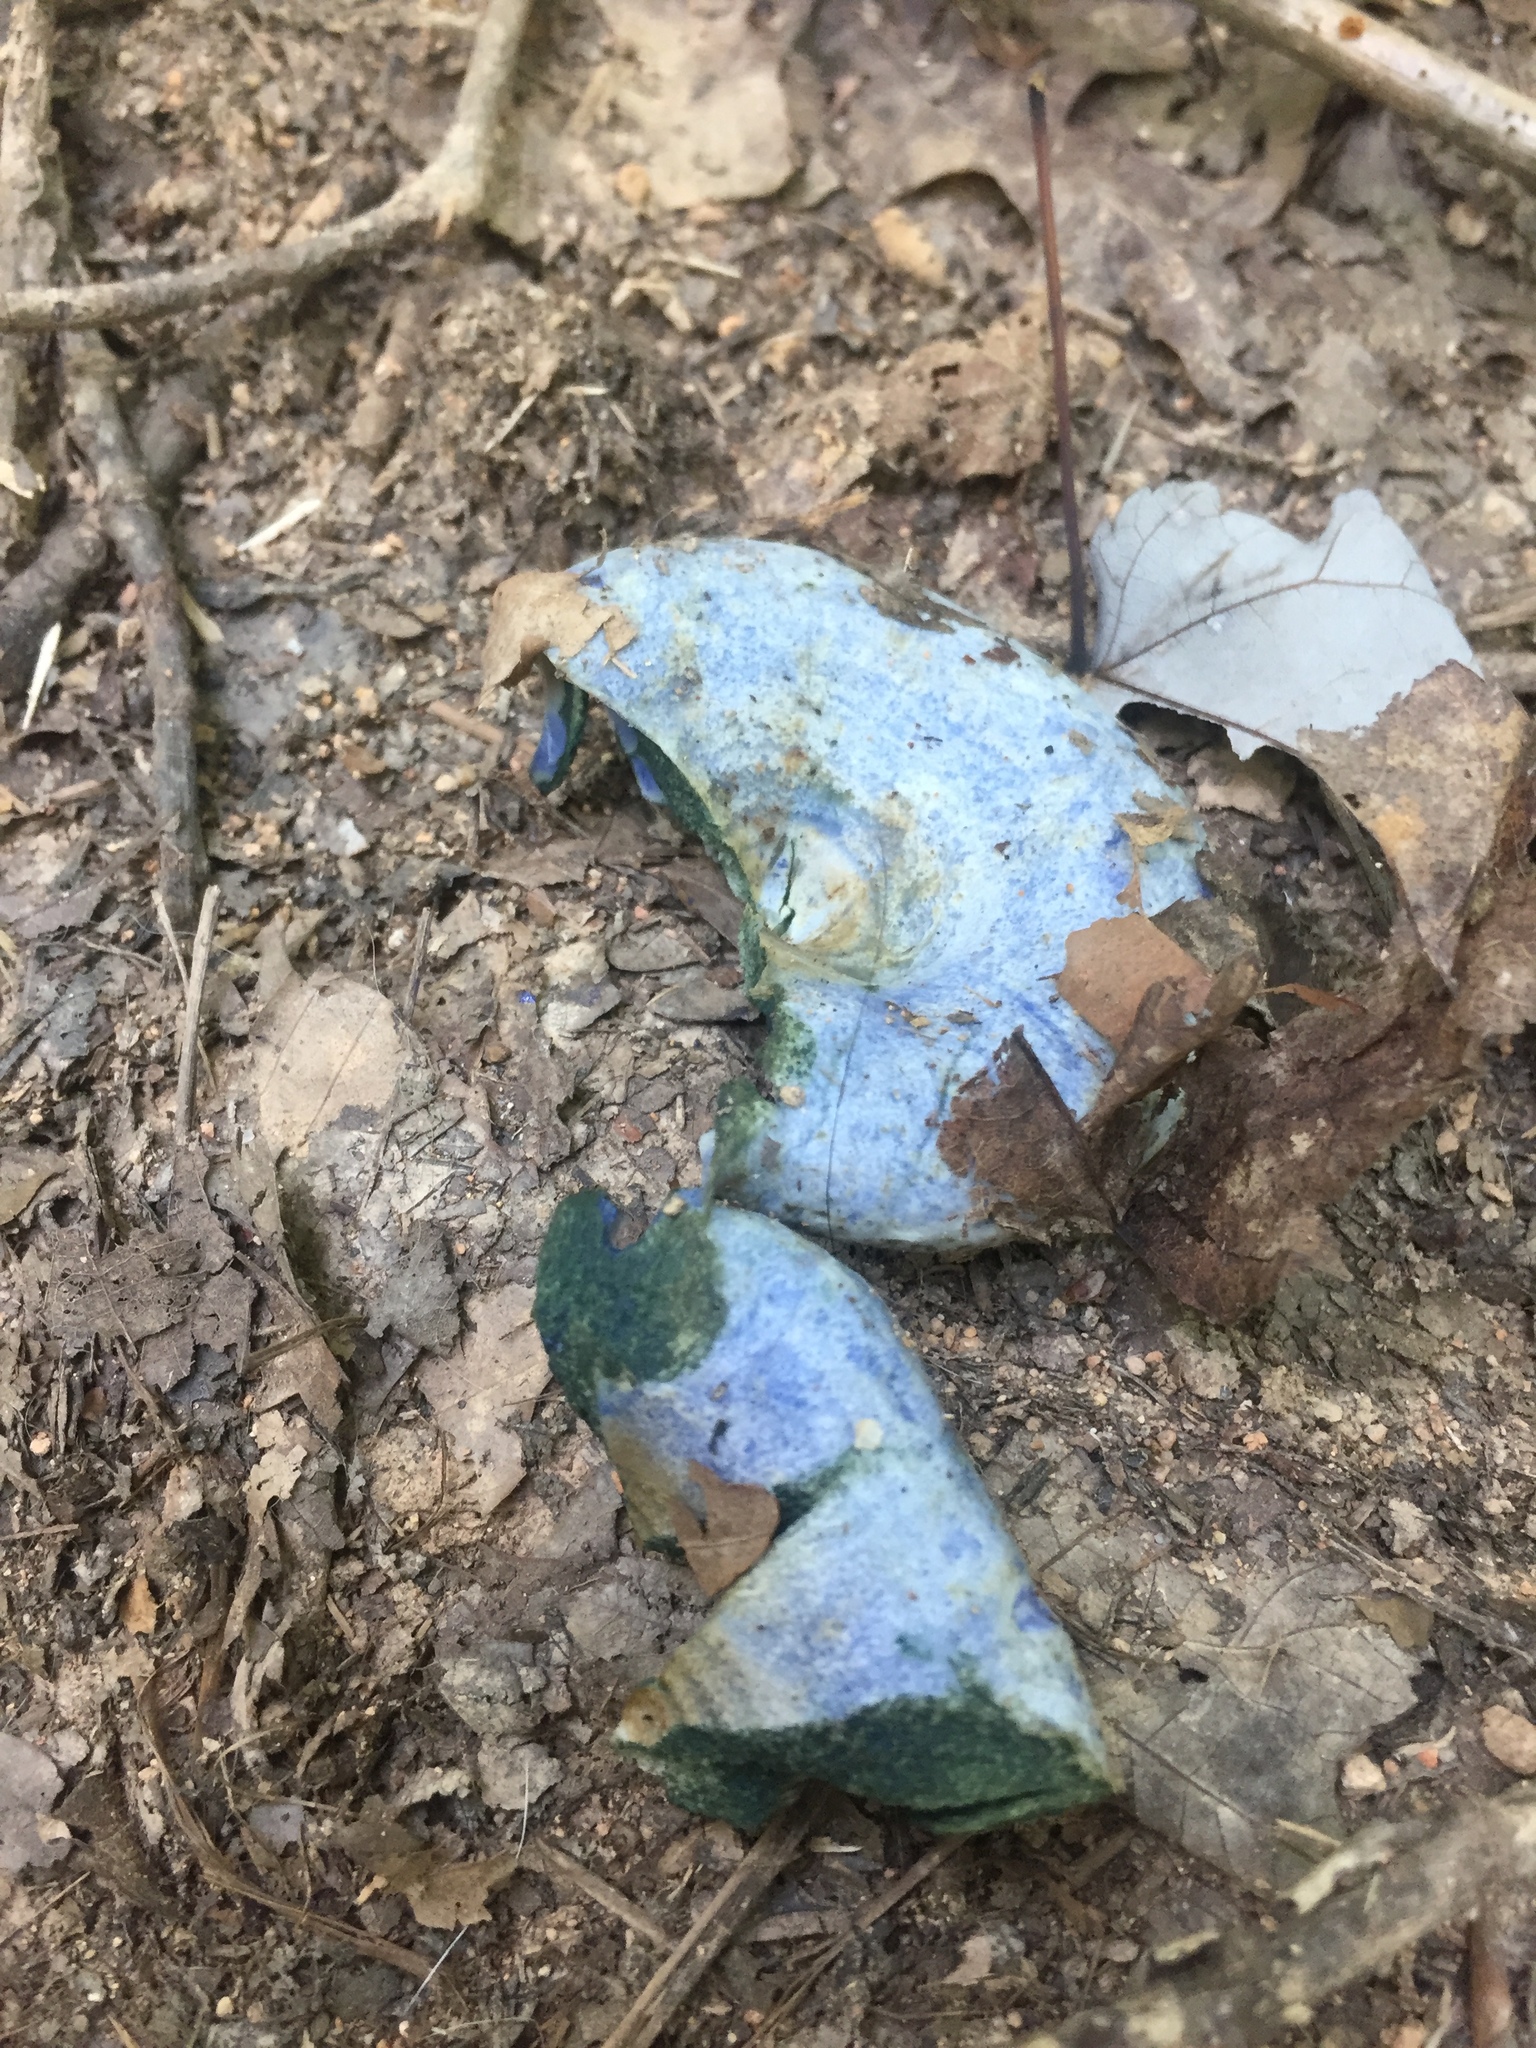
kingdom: Fungi
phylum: Basidiomycota
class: Agaricomycetes
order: Russulales
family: Russulaceae
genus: Lactarius
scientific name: Lactarius indigo
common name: Indigo milk cap
